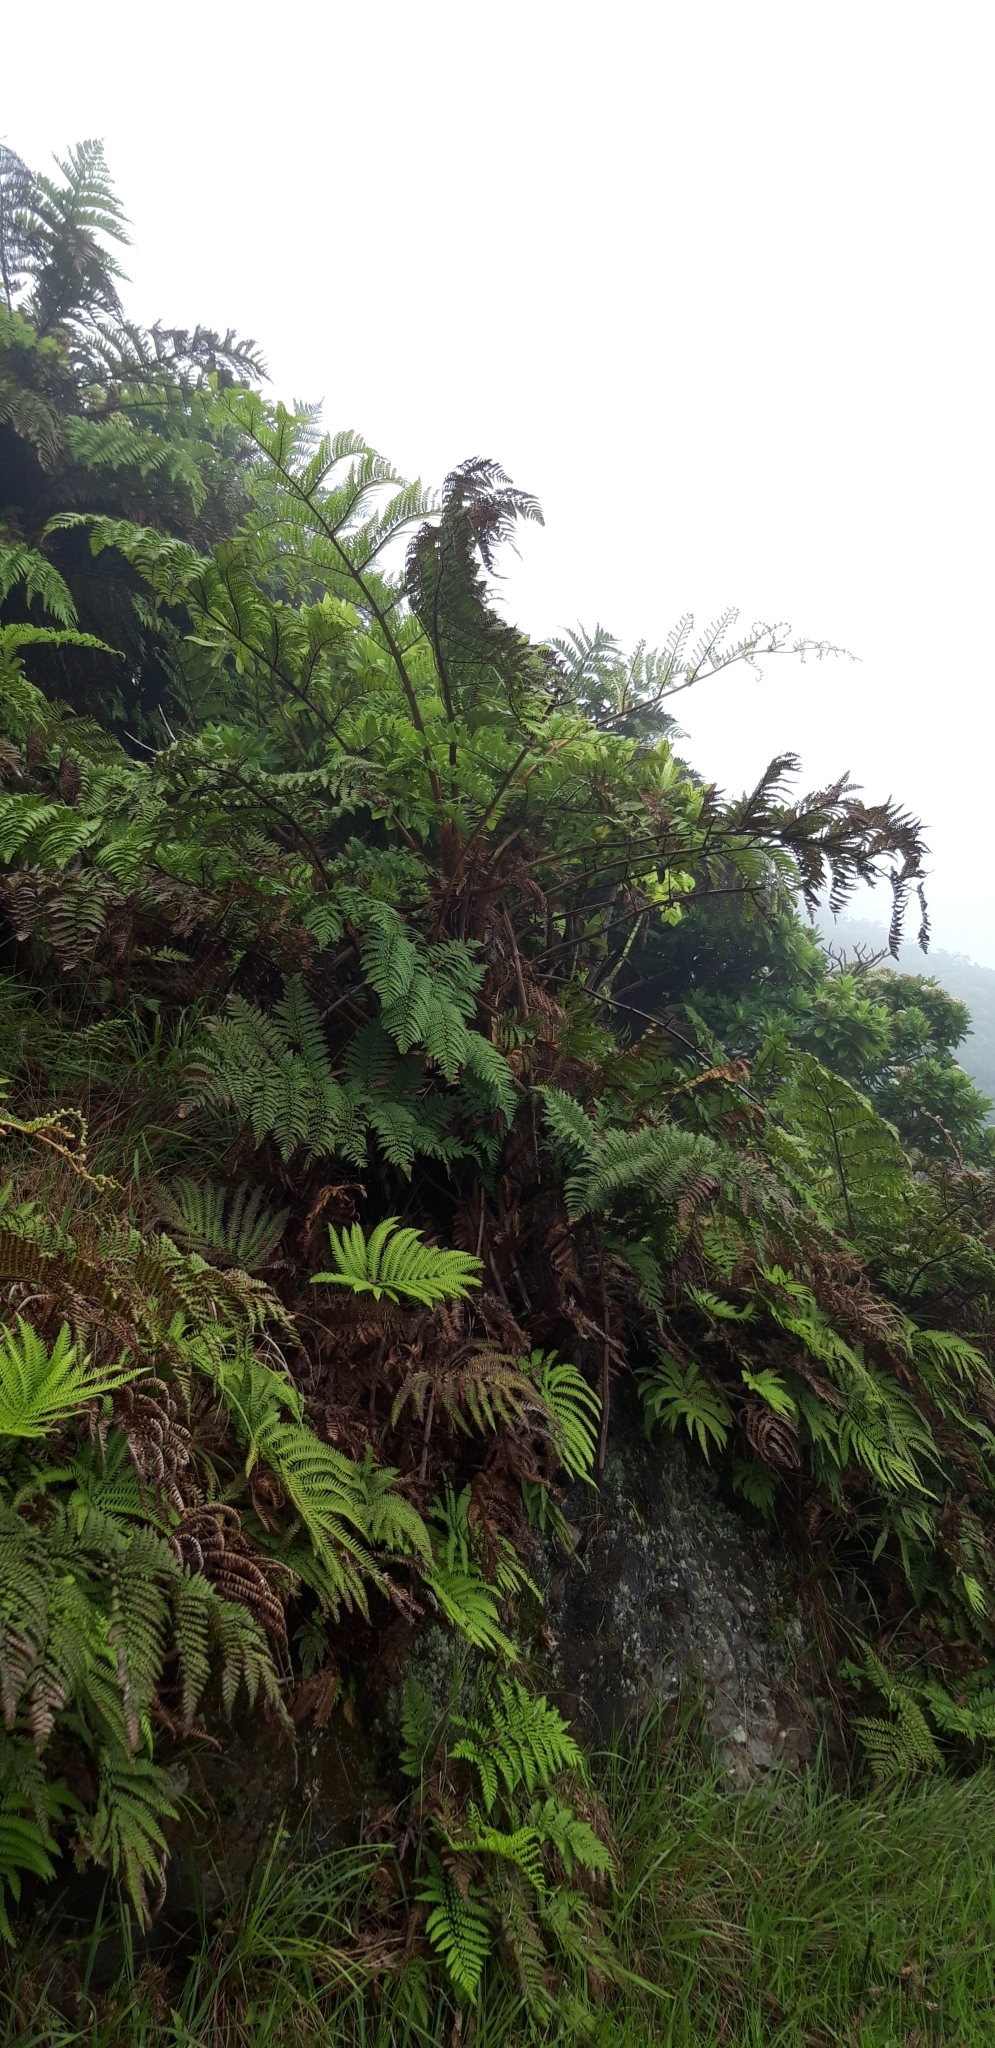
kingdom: Plantae
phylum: Tracheophyta
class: Polypodiopsida
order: Cyatheales
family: Dicksoniaceae
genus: Dicksonia
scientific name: Dicksonia arborescens
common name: St helena tree fern
